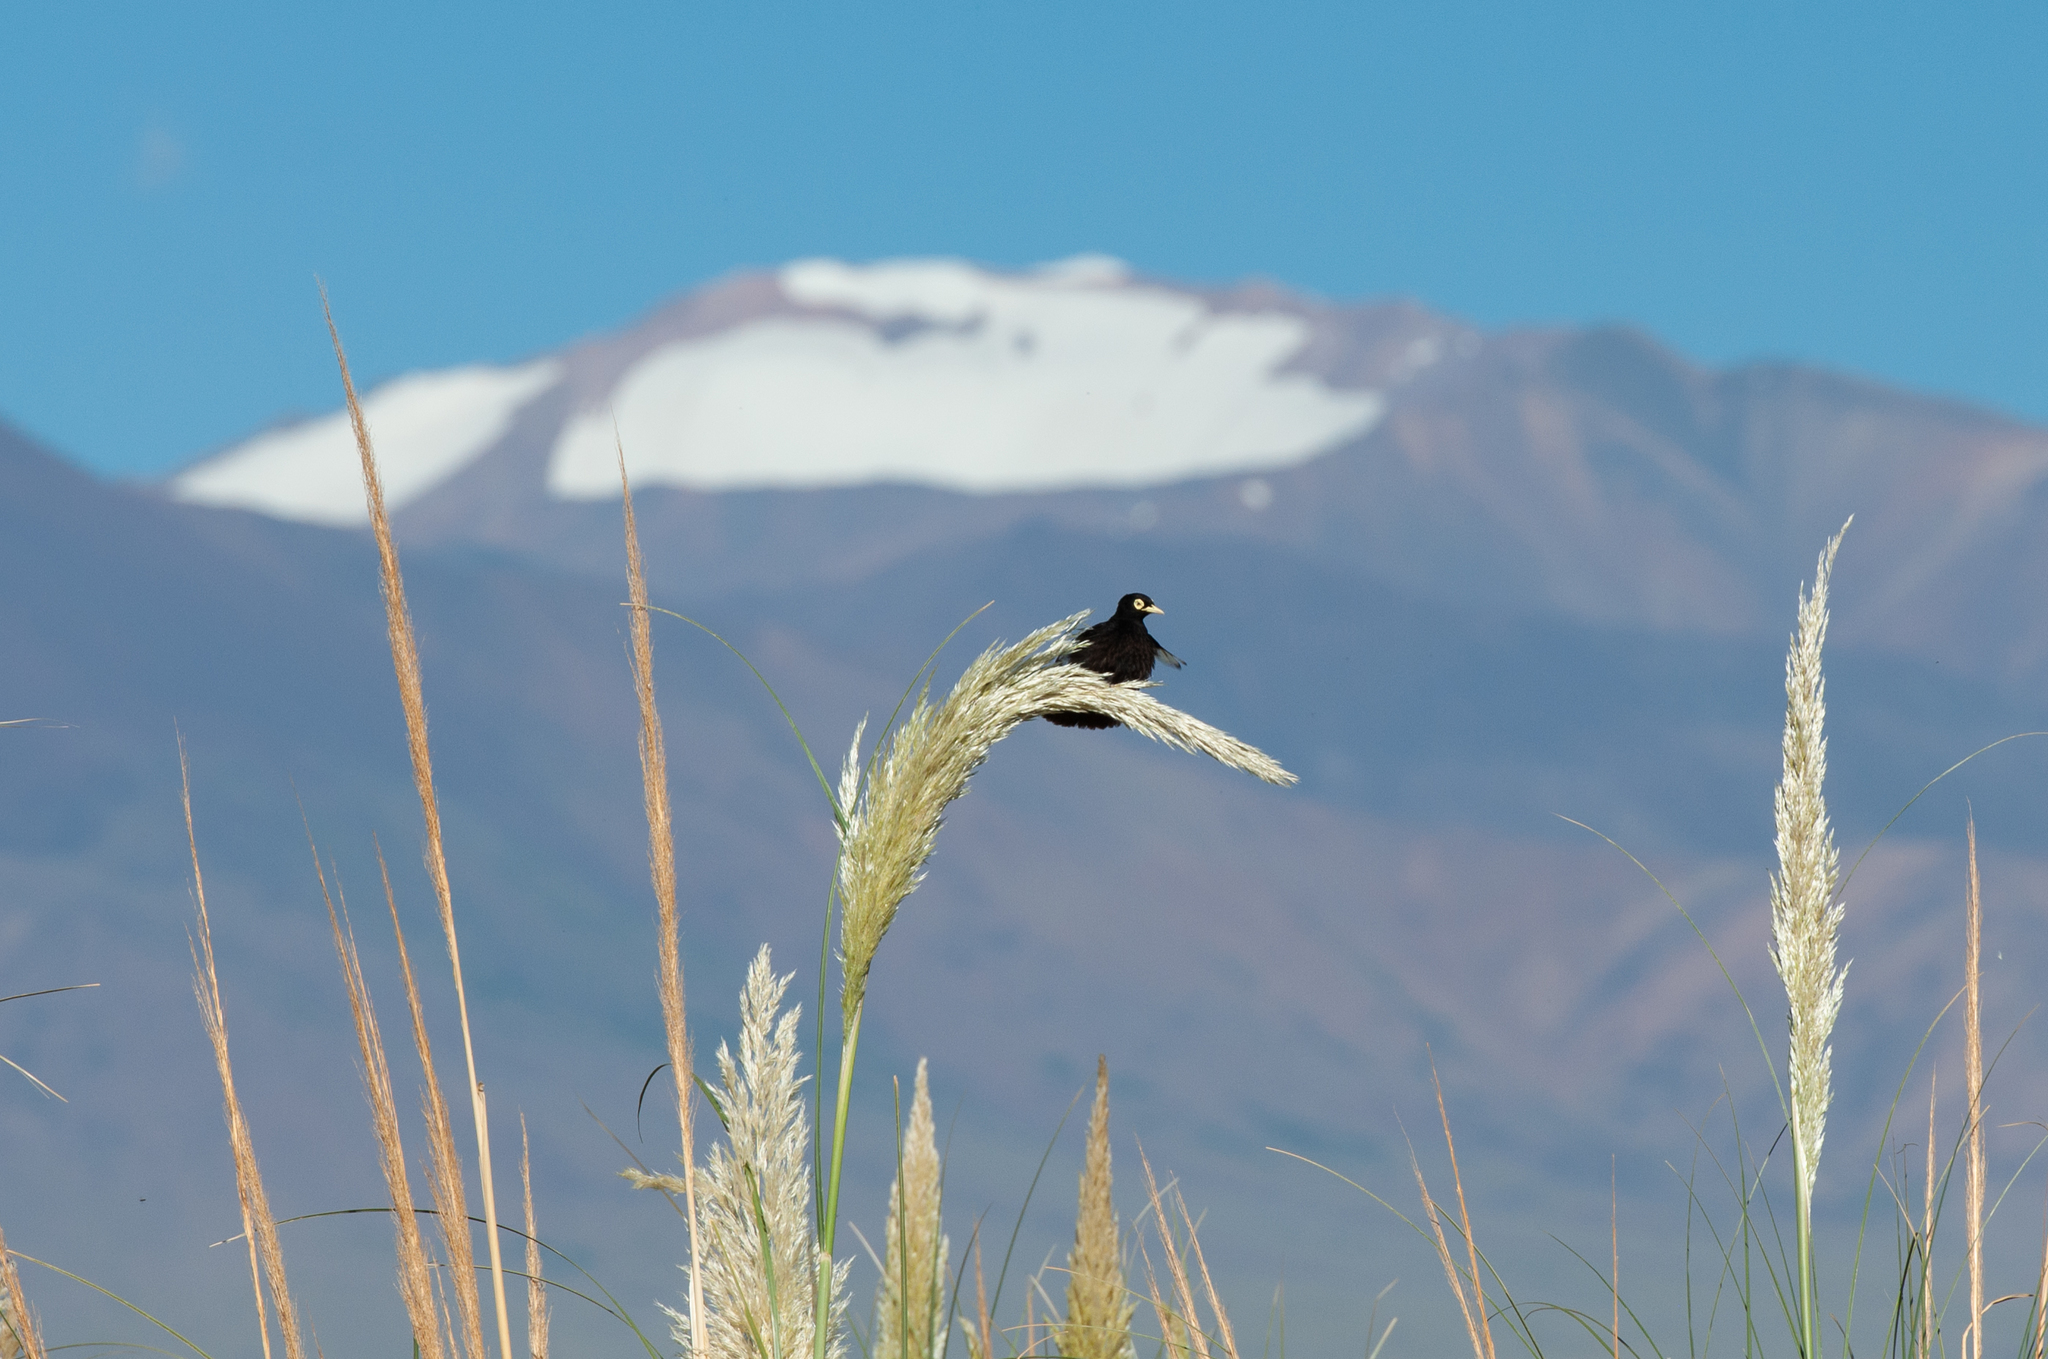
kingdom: Animalia
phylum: Chordata
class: Aves
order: Passeriformes
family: Tyrannidae
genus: Hymenops
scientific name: Hymenops perspicillatus
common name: Spectacled tyrant
